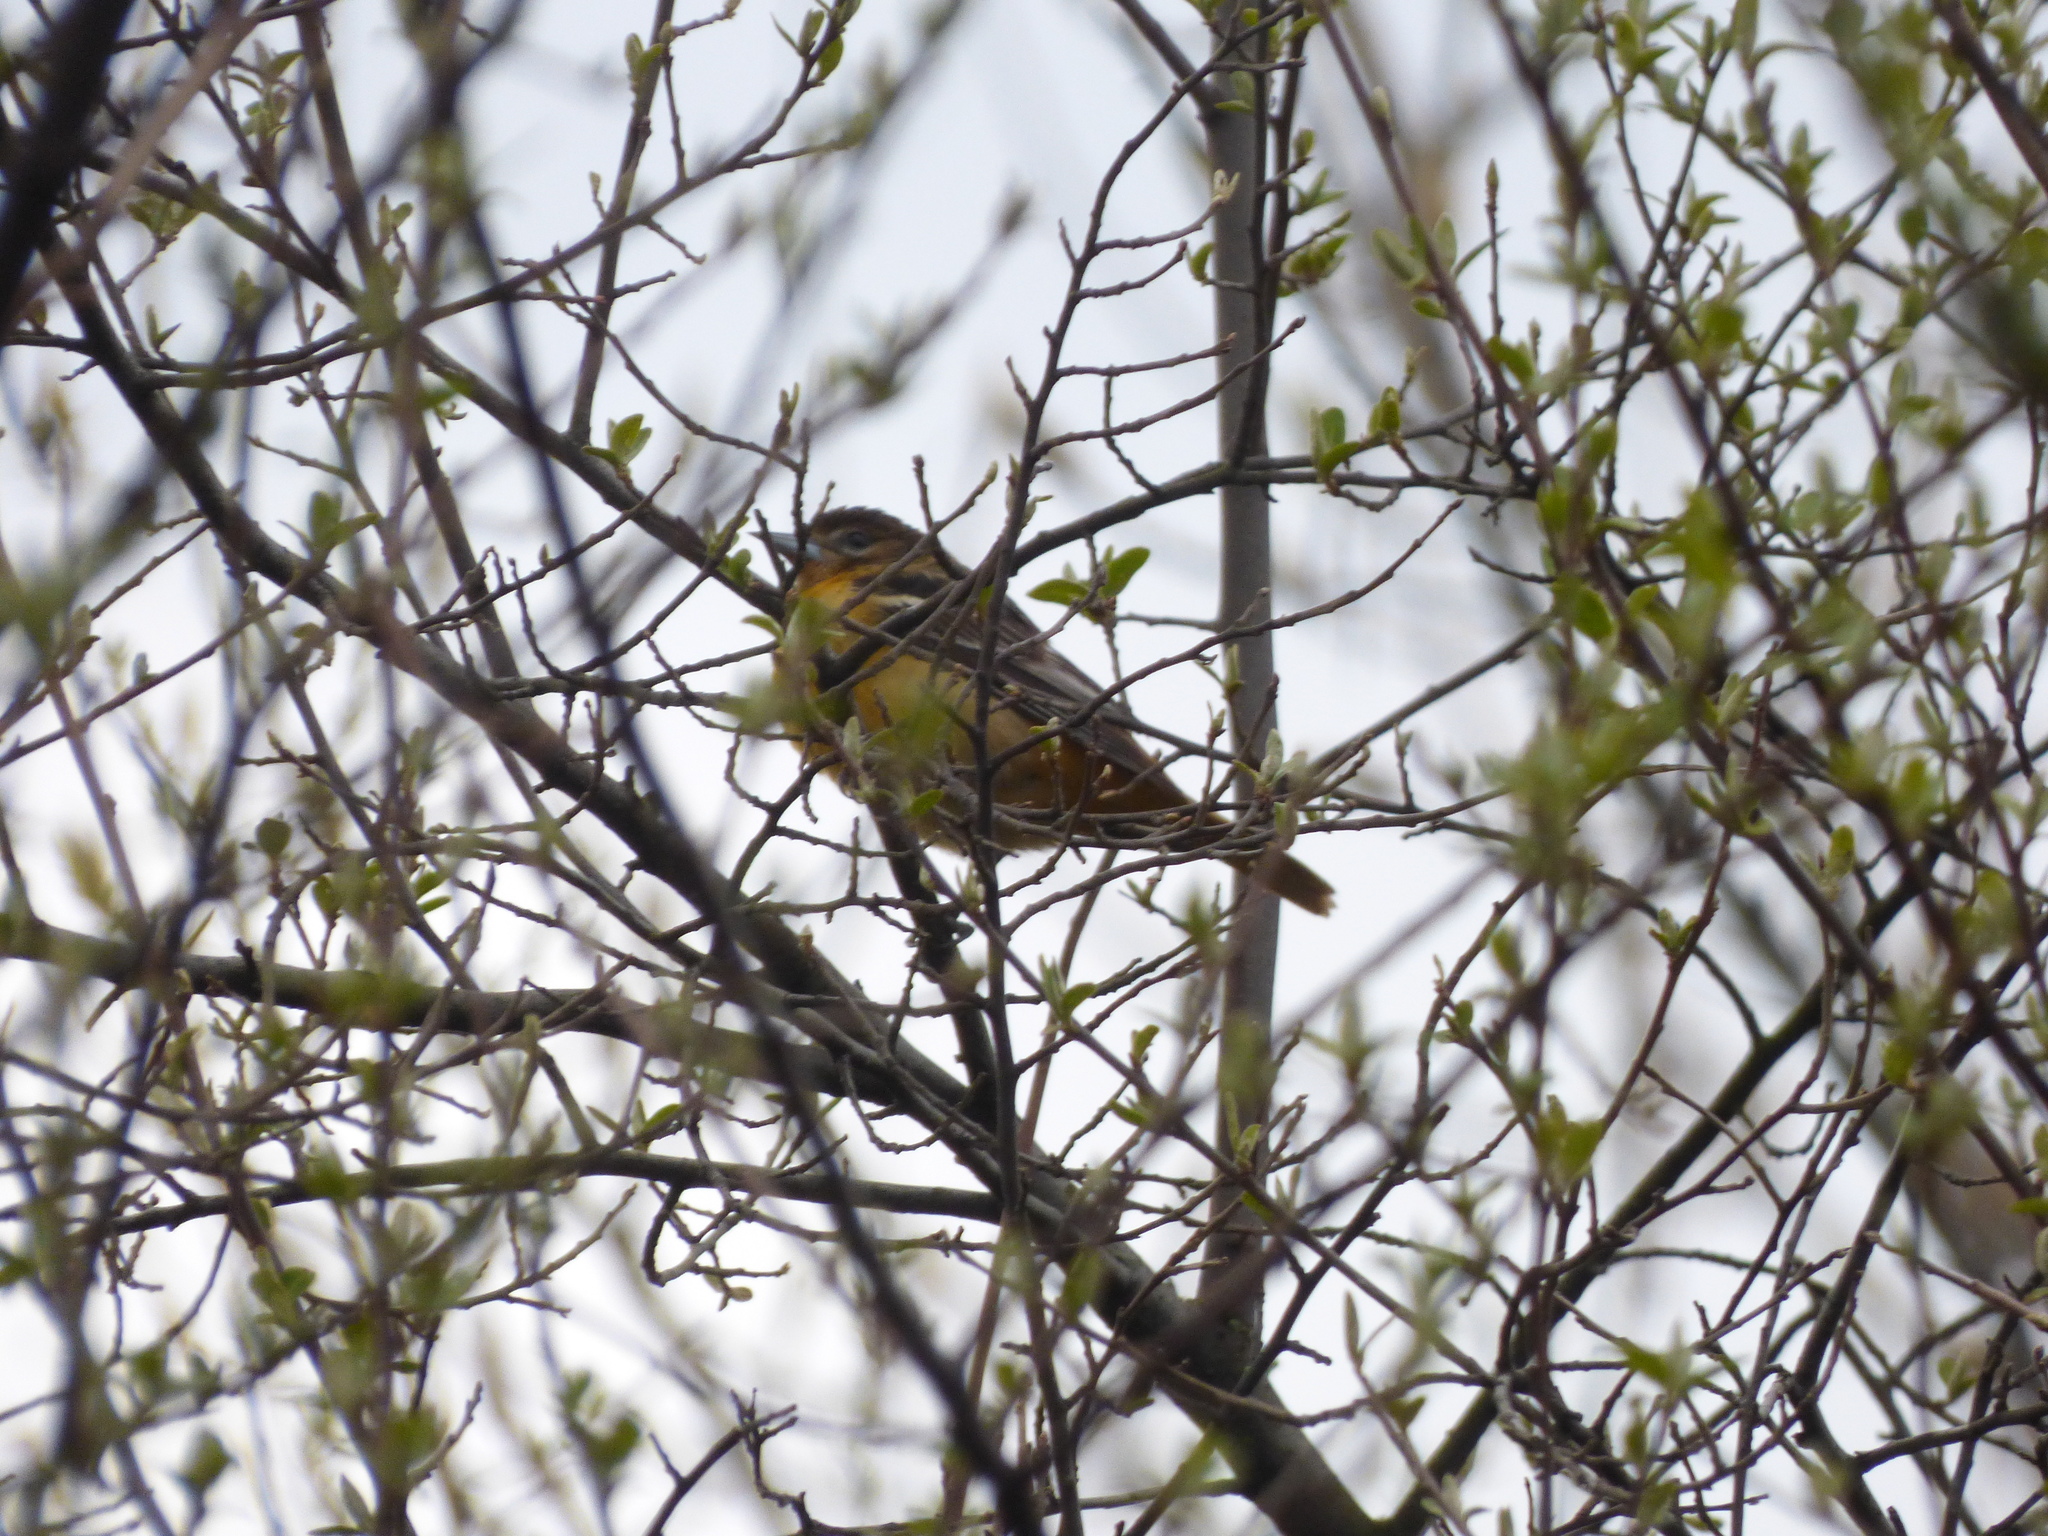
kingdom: Animalia
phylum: Chordata
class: Aves
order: Passeriformes
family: Icteridae
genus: Icterus
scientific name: Icterus galbula
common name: Baltimore oriole
